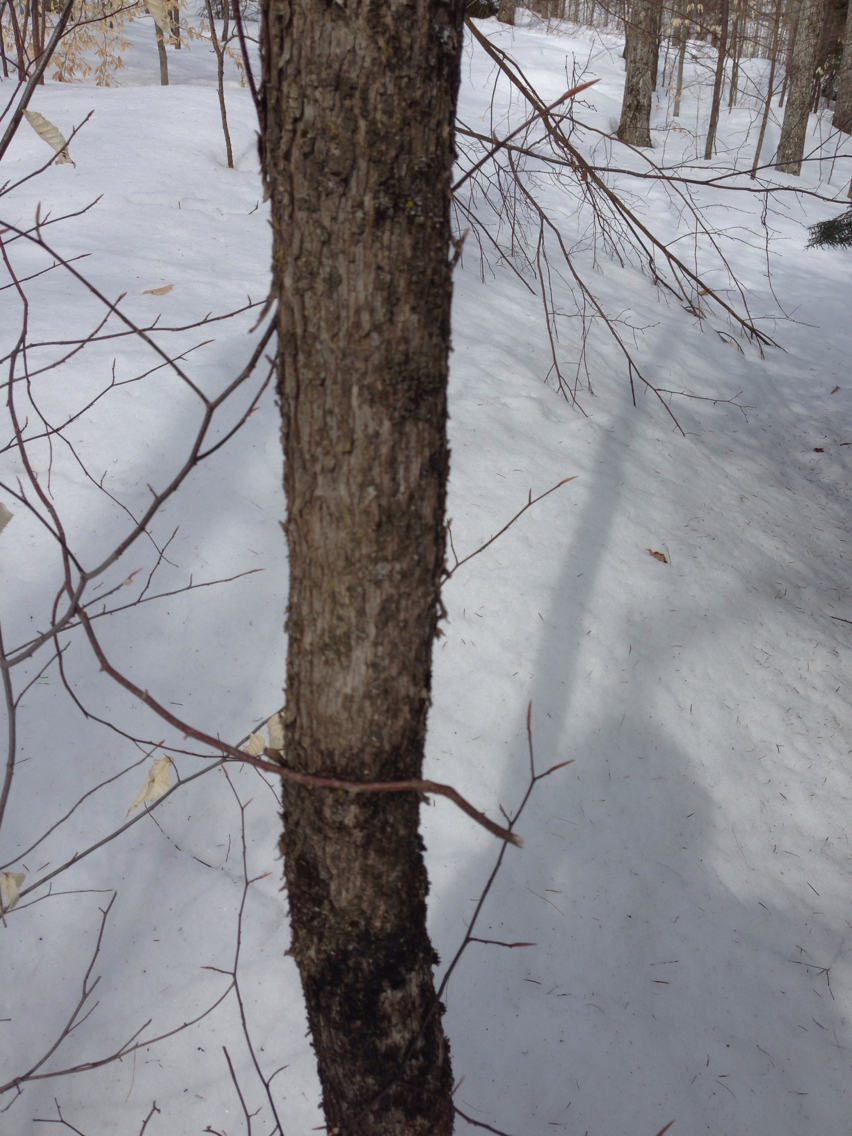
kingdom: Plantae
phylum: Tracheophyta
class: Magnoliopsida
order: Fagales
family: Betulaceae
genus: Ostrya
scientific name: Ostrya virginiana
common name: Ironwood
